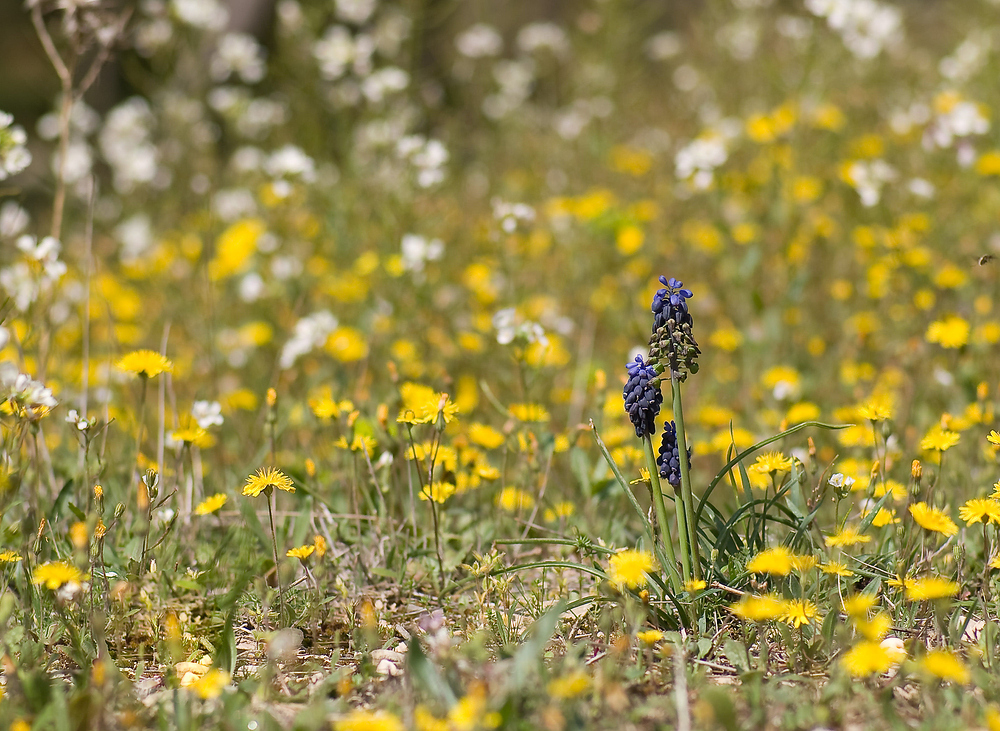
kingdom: Plantae
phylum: Tracheophyta
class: Liliopsida
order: Asparagales
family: Asparagaceae
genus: Muscari
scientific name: Muscari neglectum
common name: Grape-hyacinth
